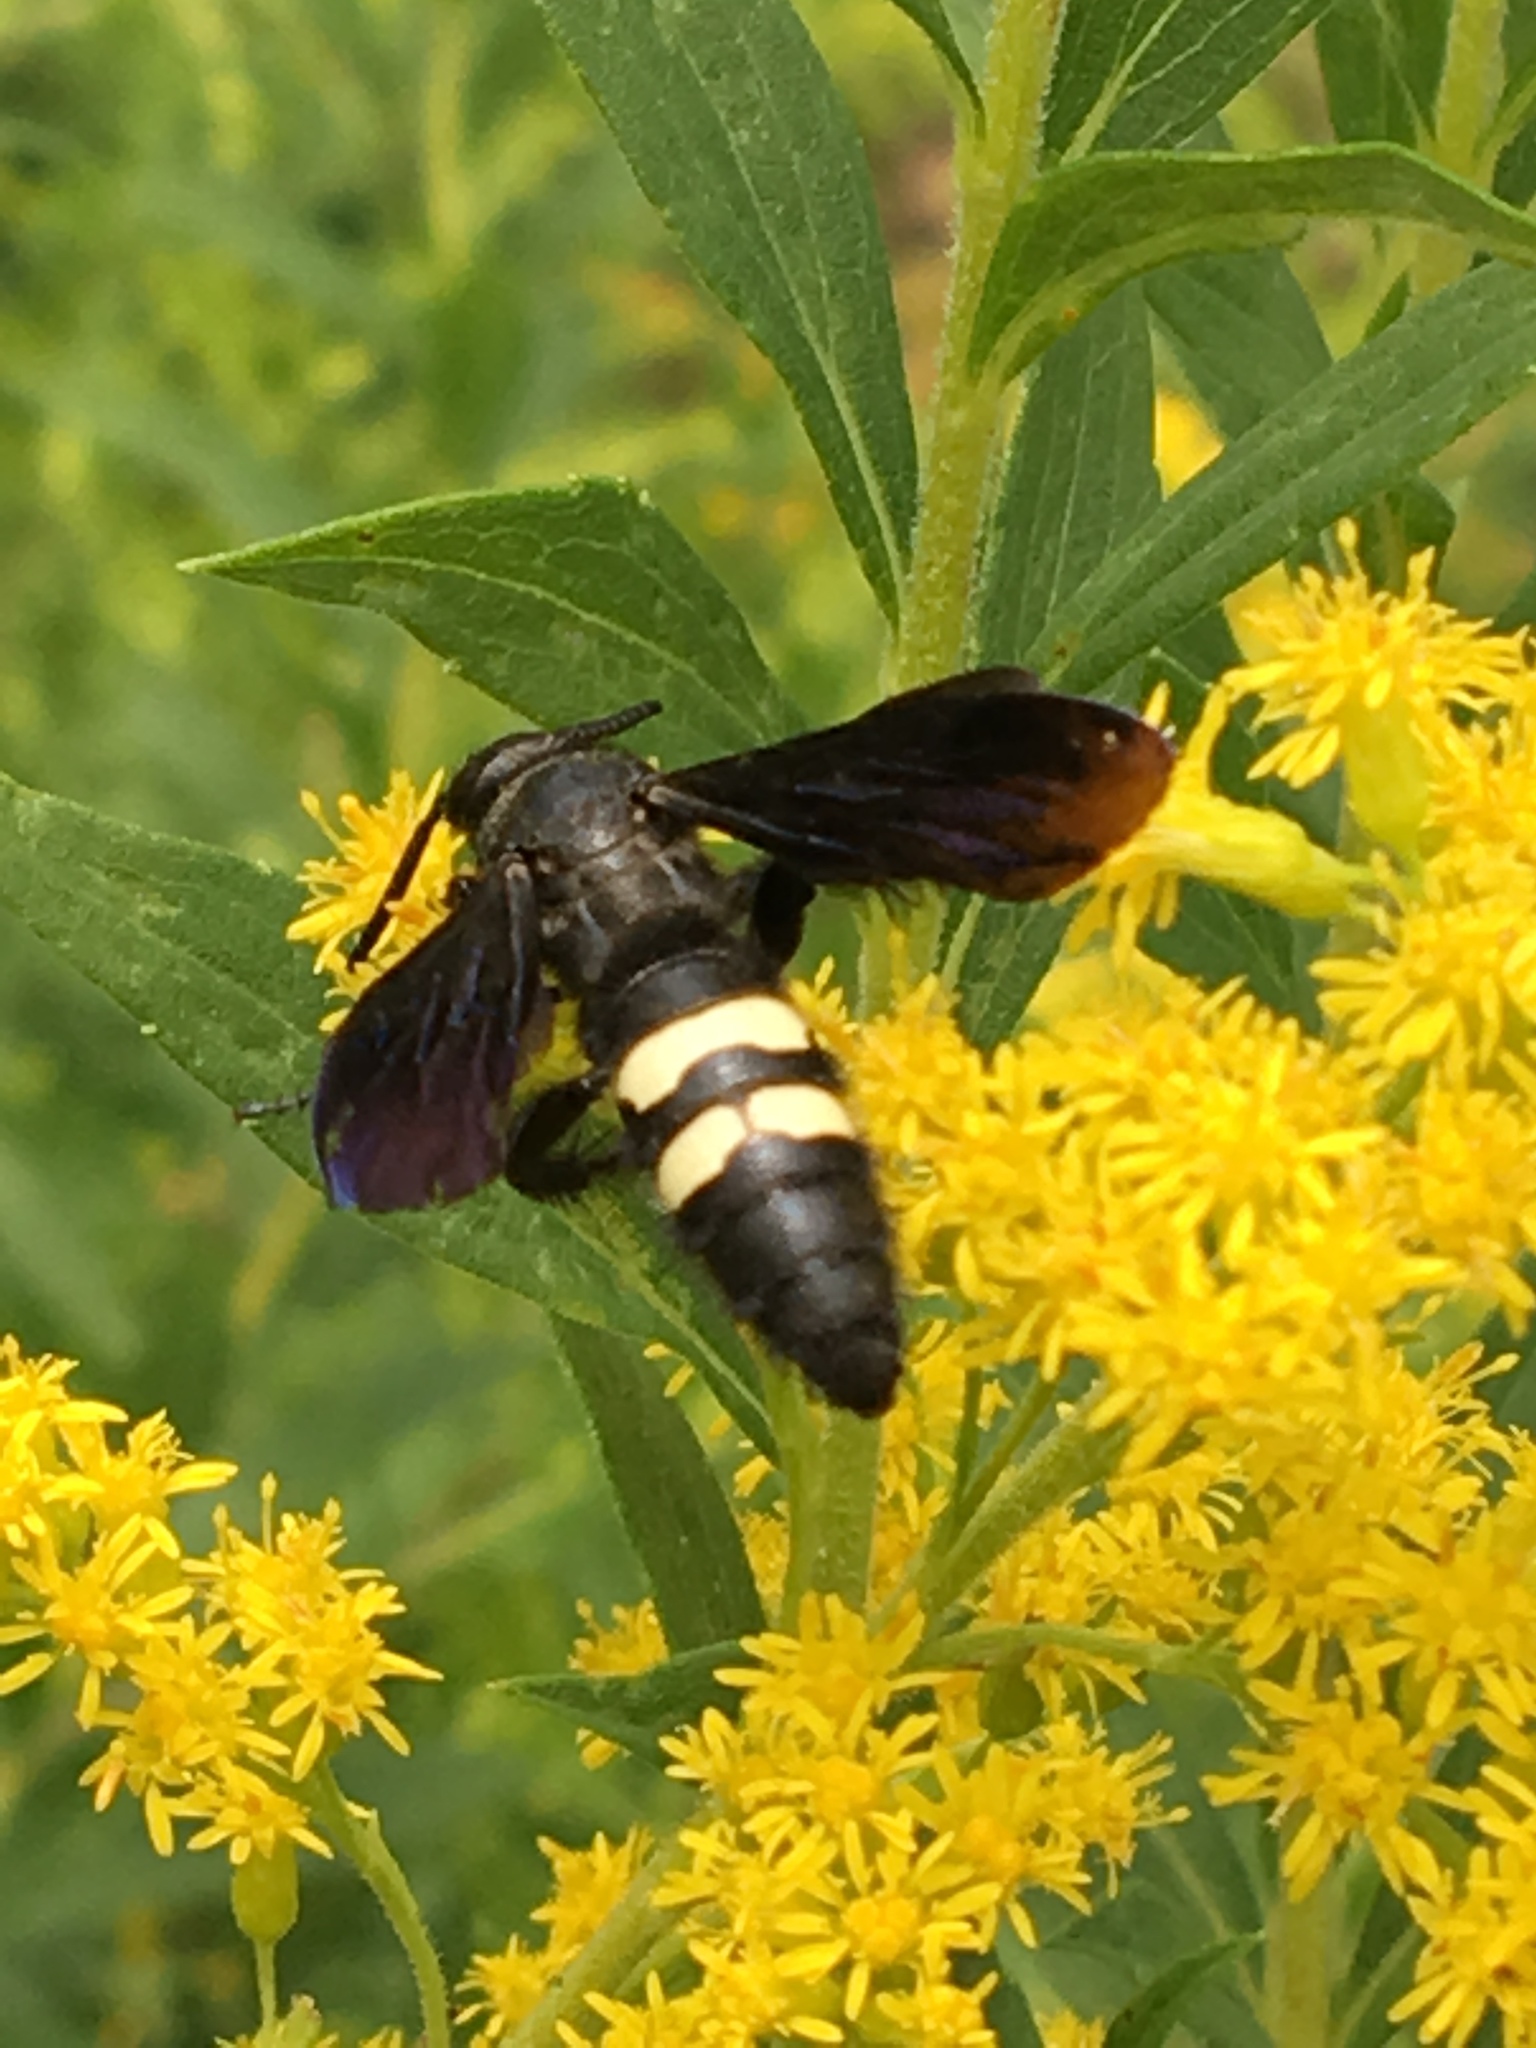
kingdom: Animalia
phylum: Arthropoda
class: Insecta
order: Hymenoptera
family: Scoliidae
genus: Scolia
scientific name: Scolia bicincta
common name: Double-banded scoliid wasp
